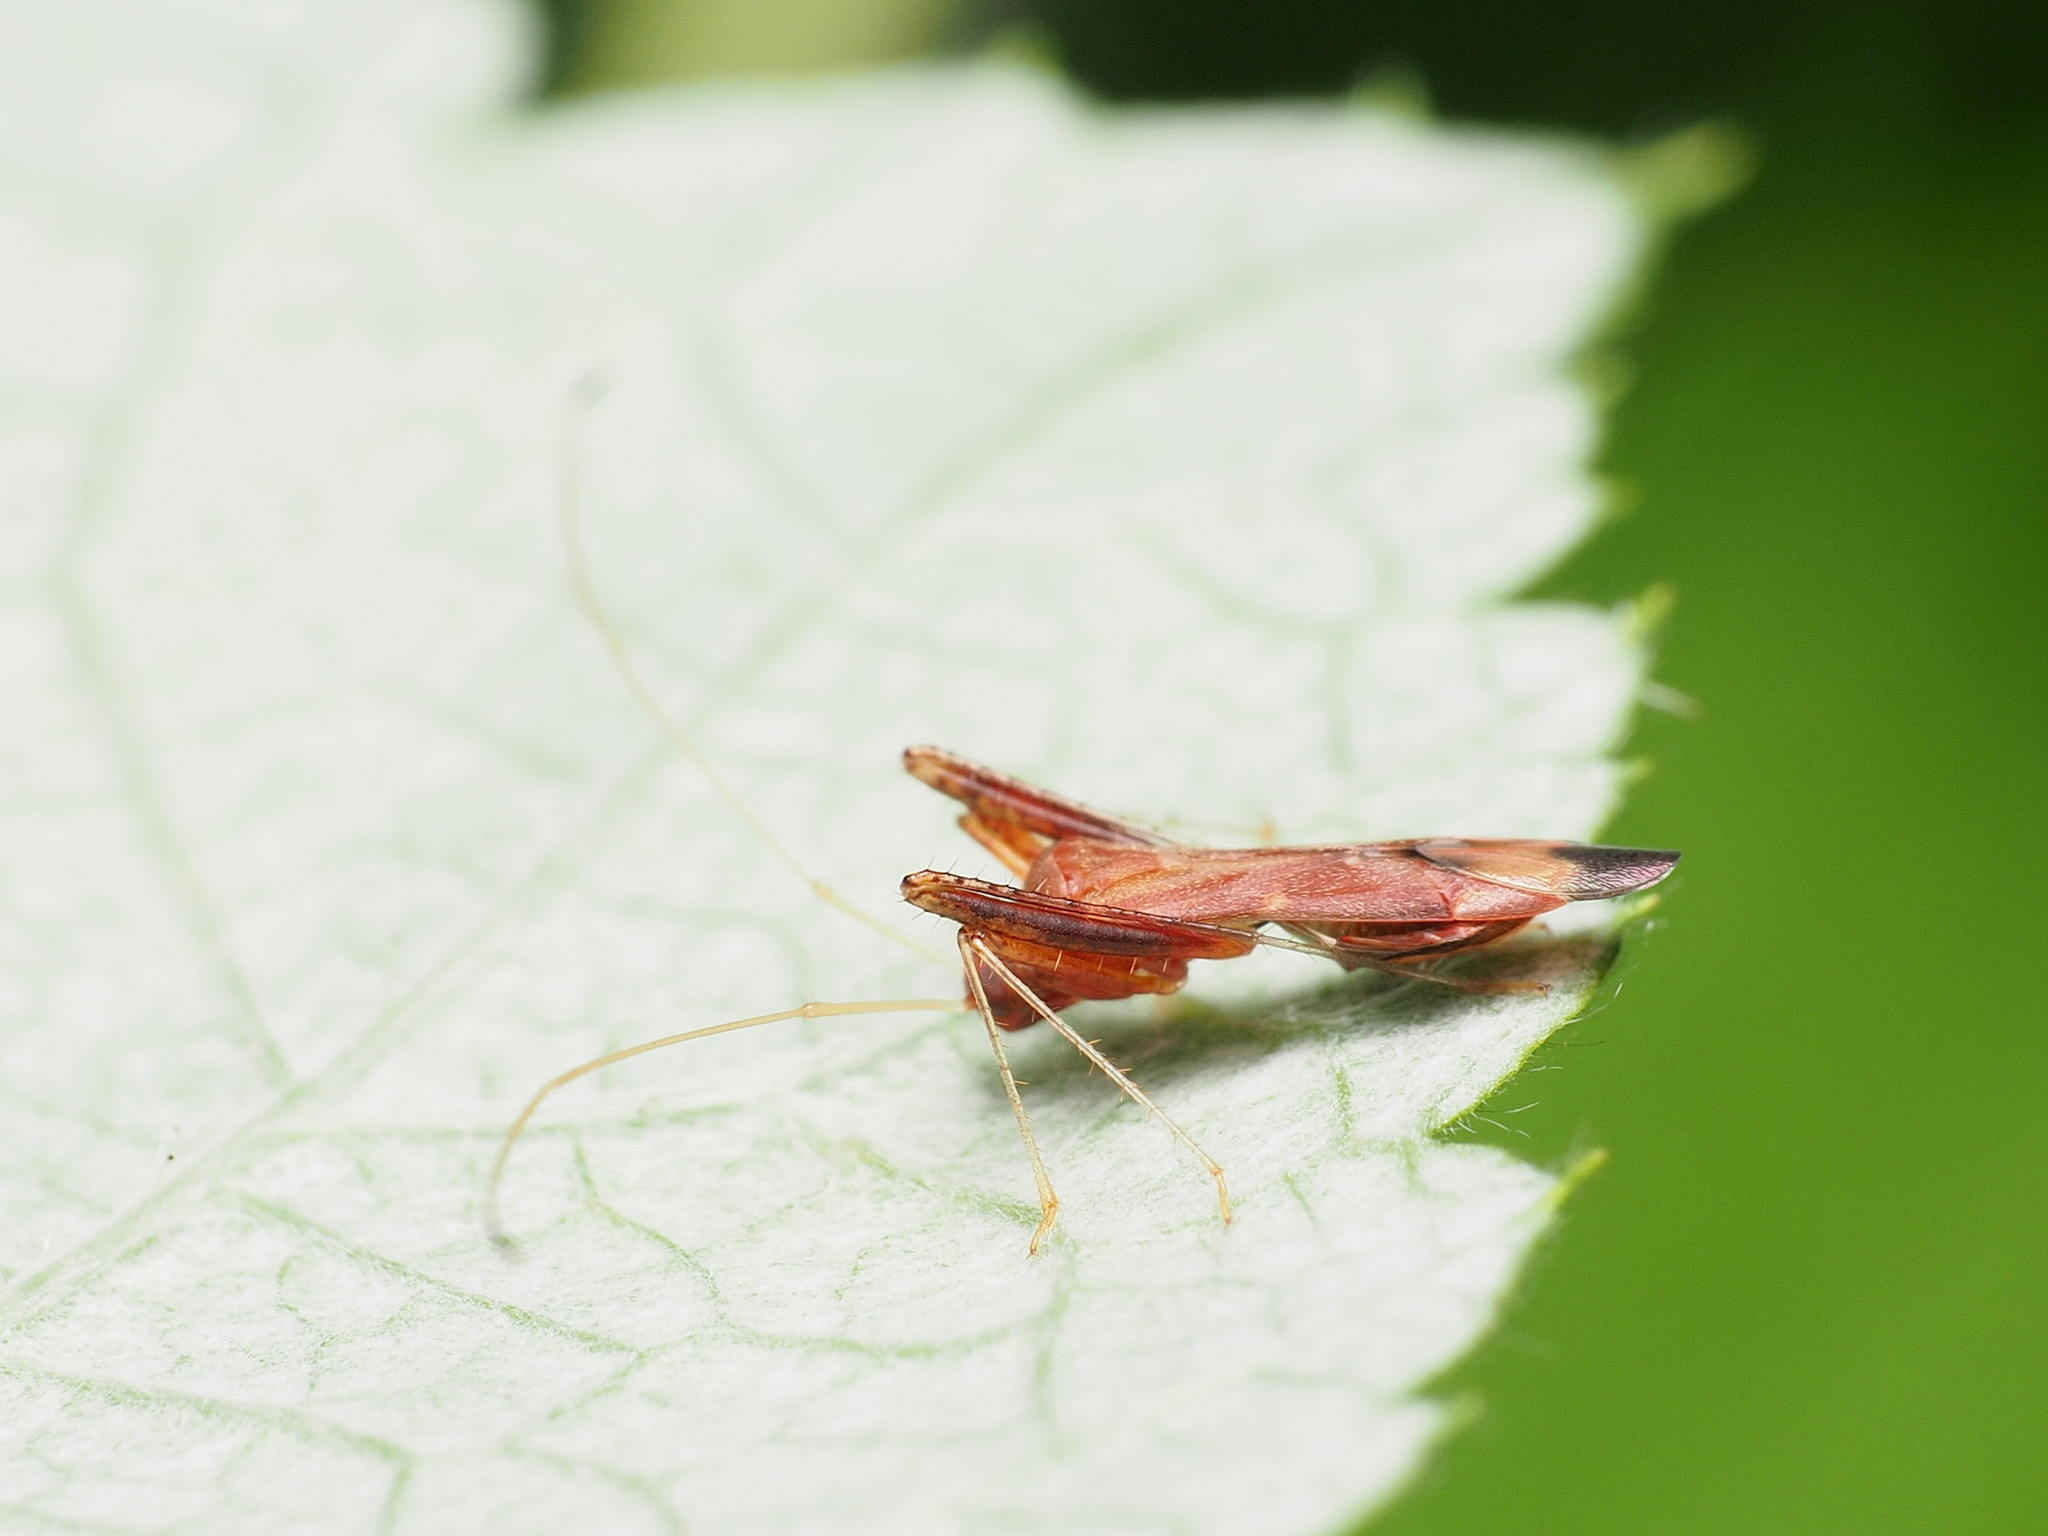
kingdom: Animalia
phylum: Arthropoda
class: Insecta
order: Hemiptera
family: Miridae
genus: Paraxenetus
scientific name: Paraxenetus guttulatus
